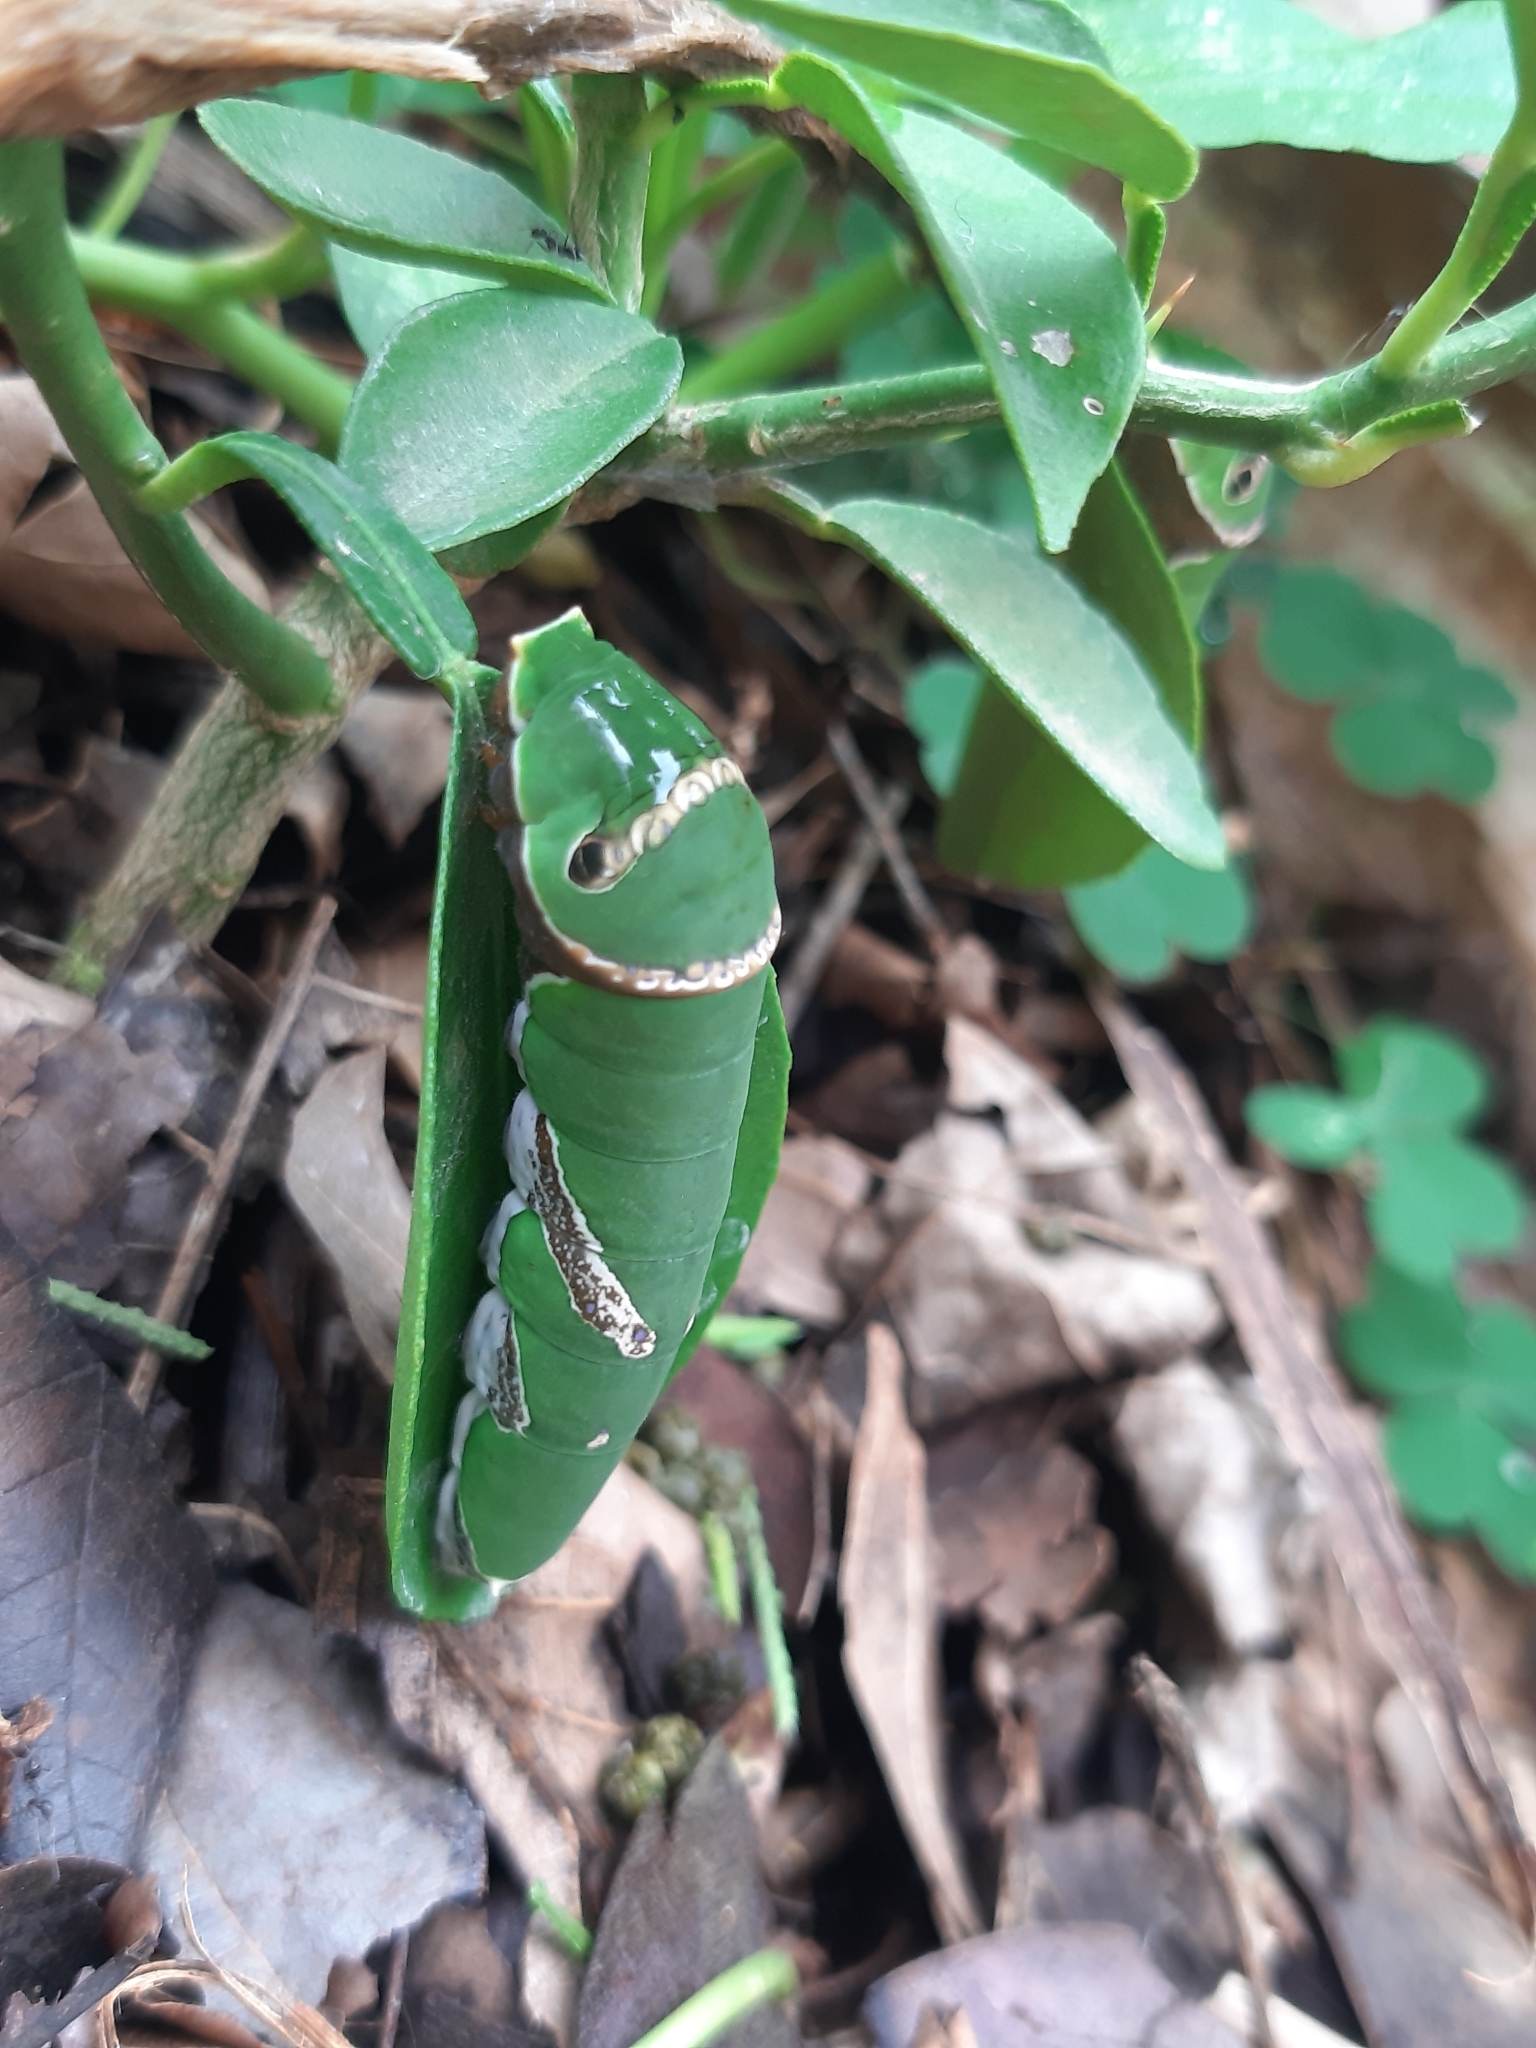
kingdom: Animalia
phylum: Arthropoda
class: Insecta
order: Lepidoptera
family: Papilionidae
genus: Papilio
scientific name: Papilio polytes
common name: Common mormon
